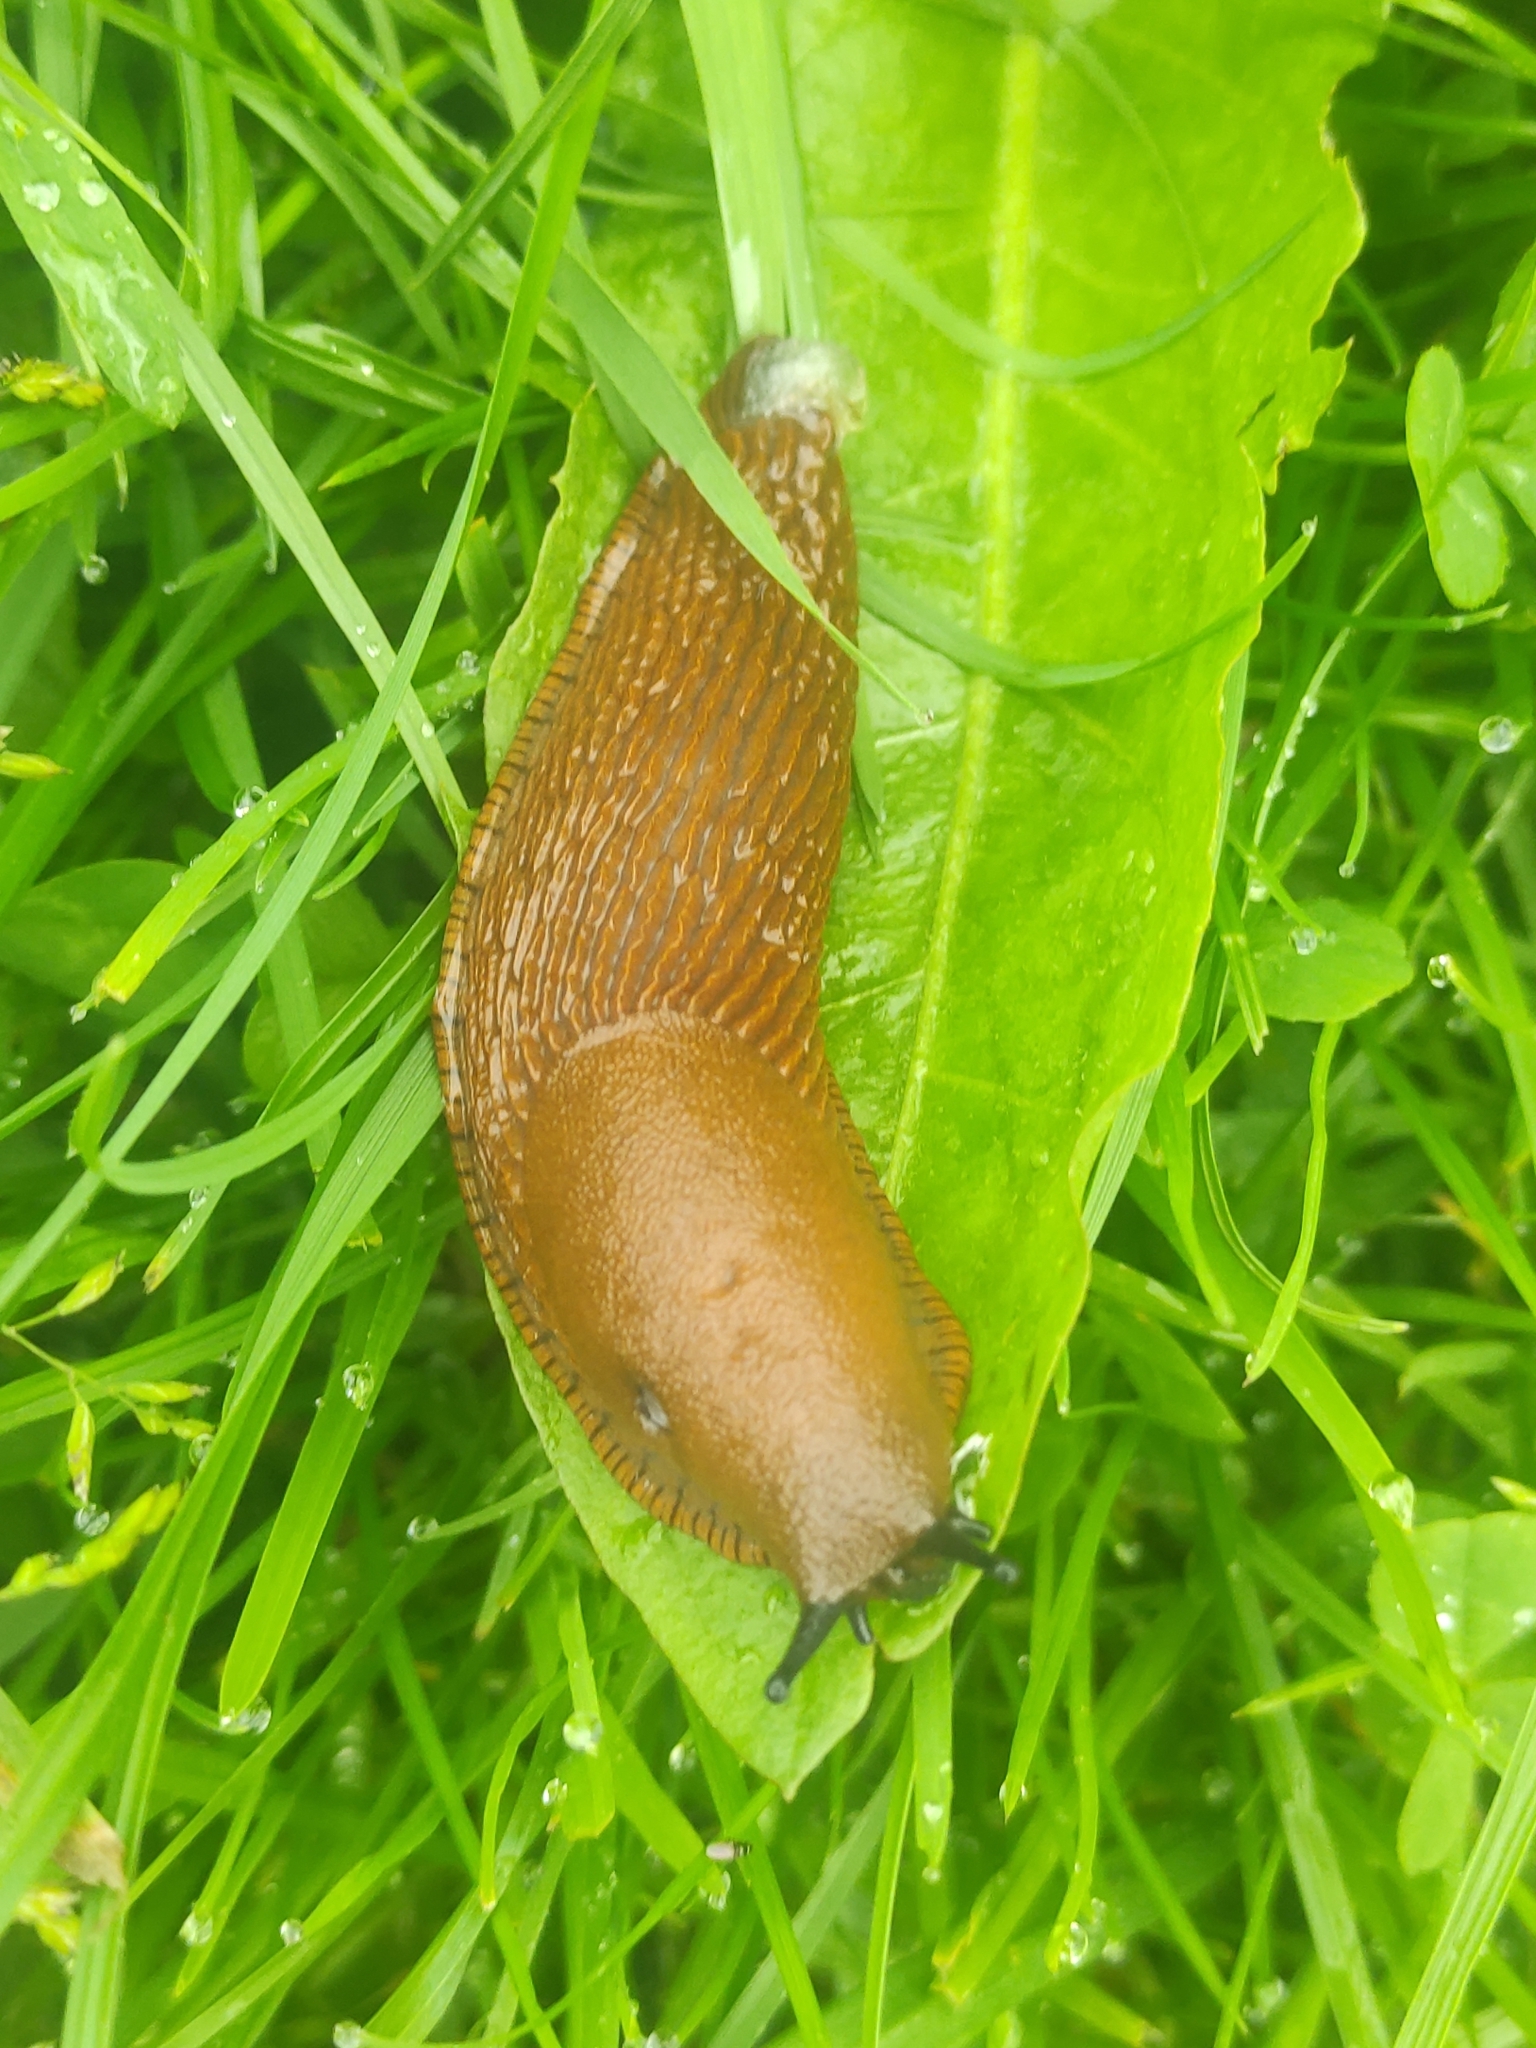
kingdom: Animalia
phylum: Mollusca
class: Gastropoda
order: Stylommatophora
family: Arionidae
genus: Arion
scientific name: Arion vulgaris
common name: Lusitanian slug
